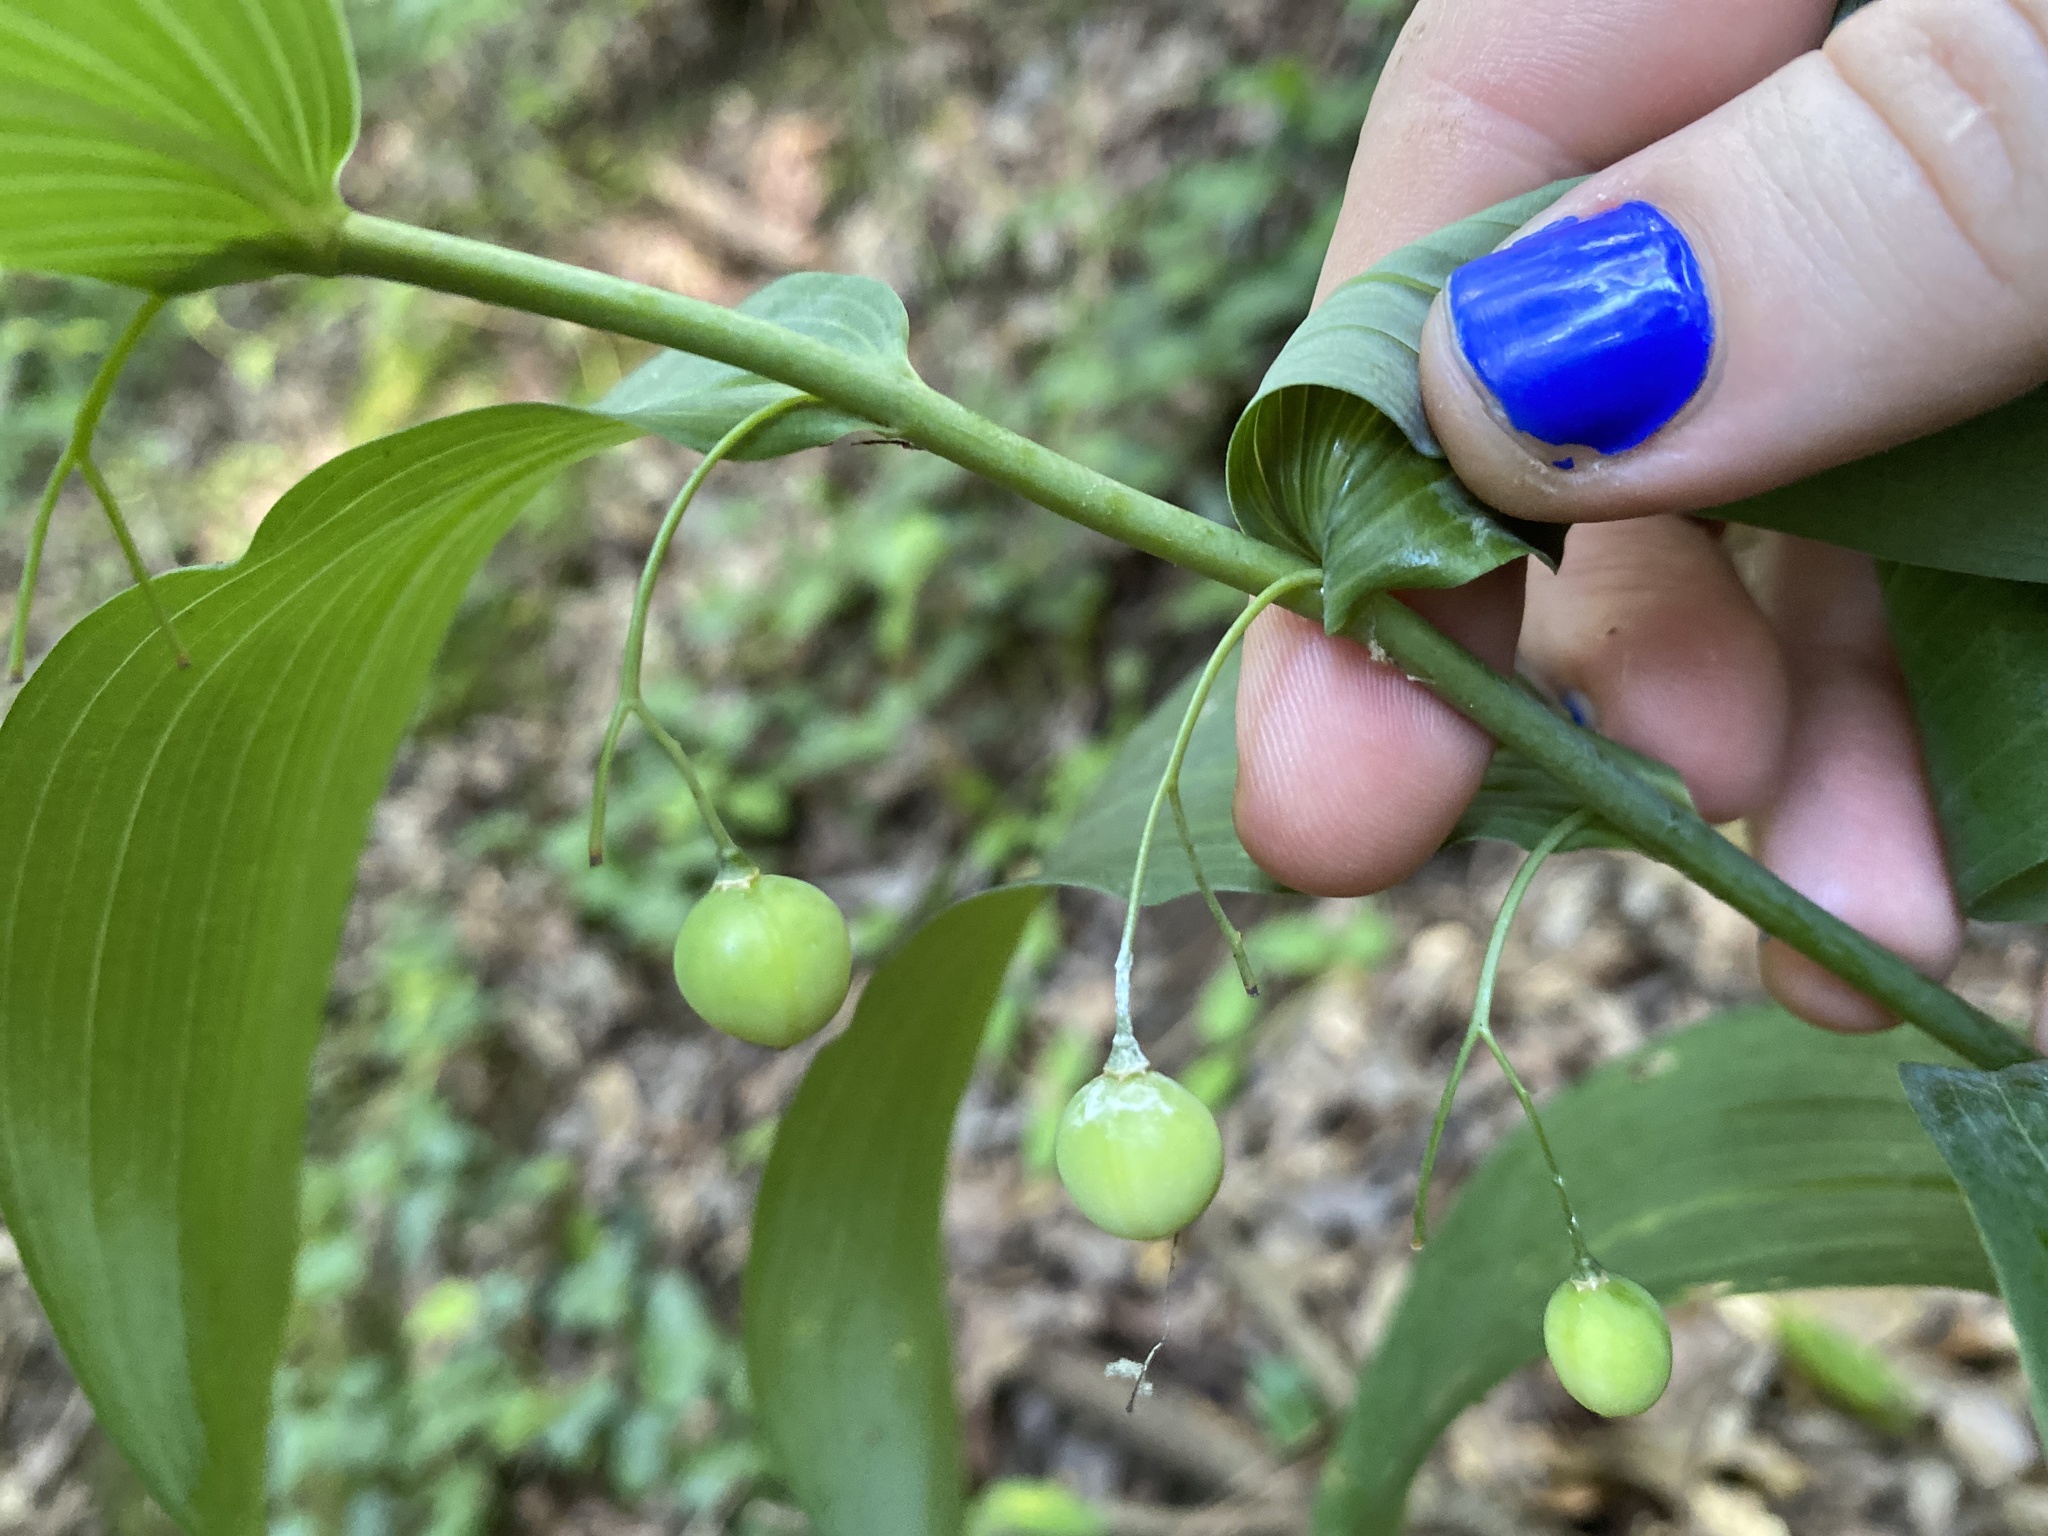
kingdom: Plantae
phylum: Tracheophyta
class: Liliopsida
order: Asparagales
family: Asparagaceae
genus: Polygonatum
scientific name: Polygonatum biflorum
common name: American solomon's-seal
